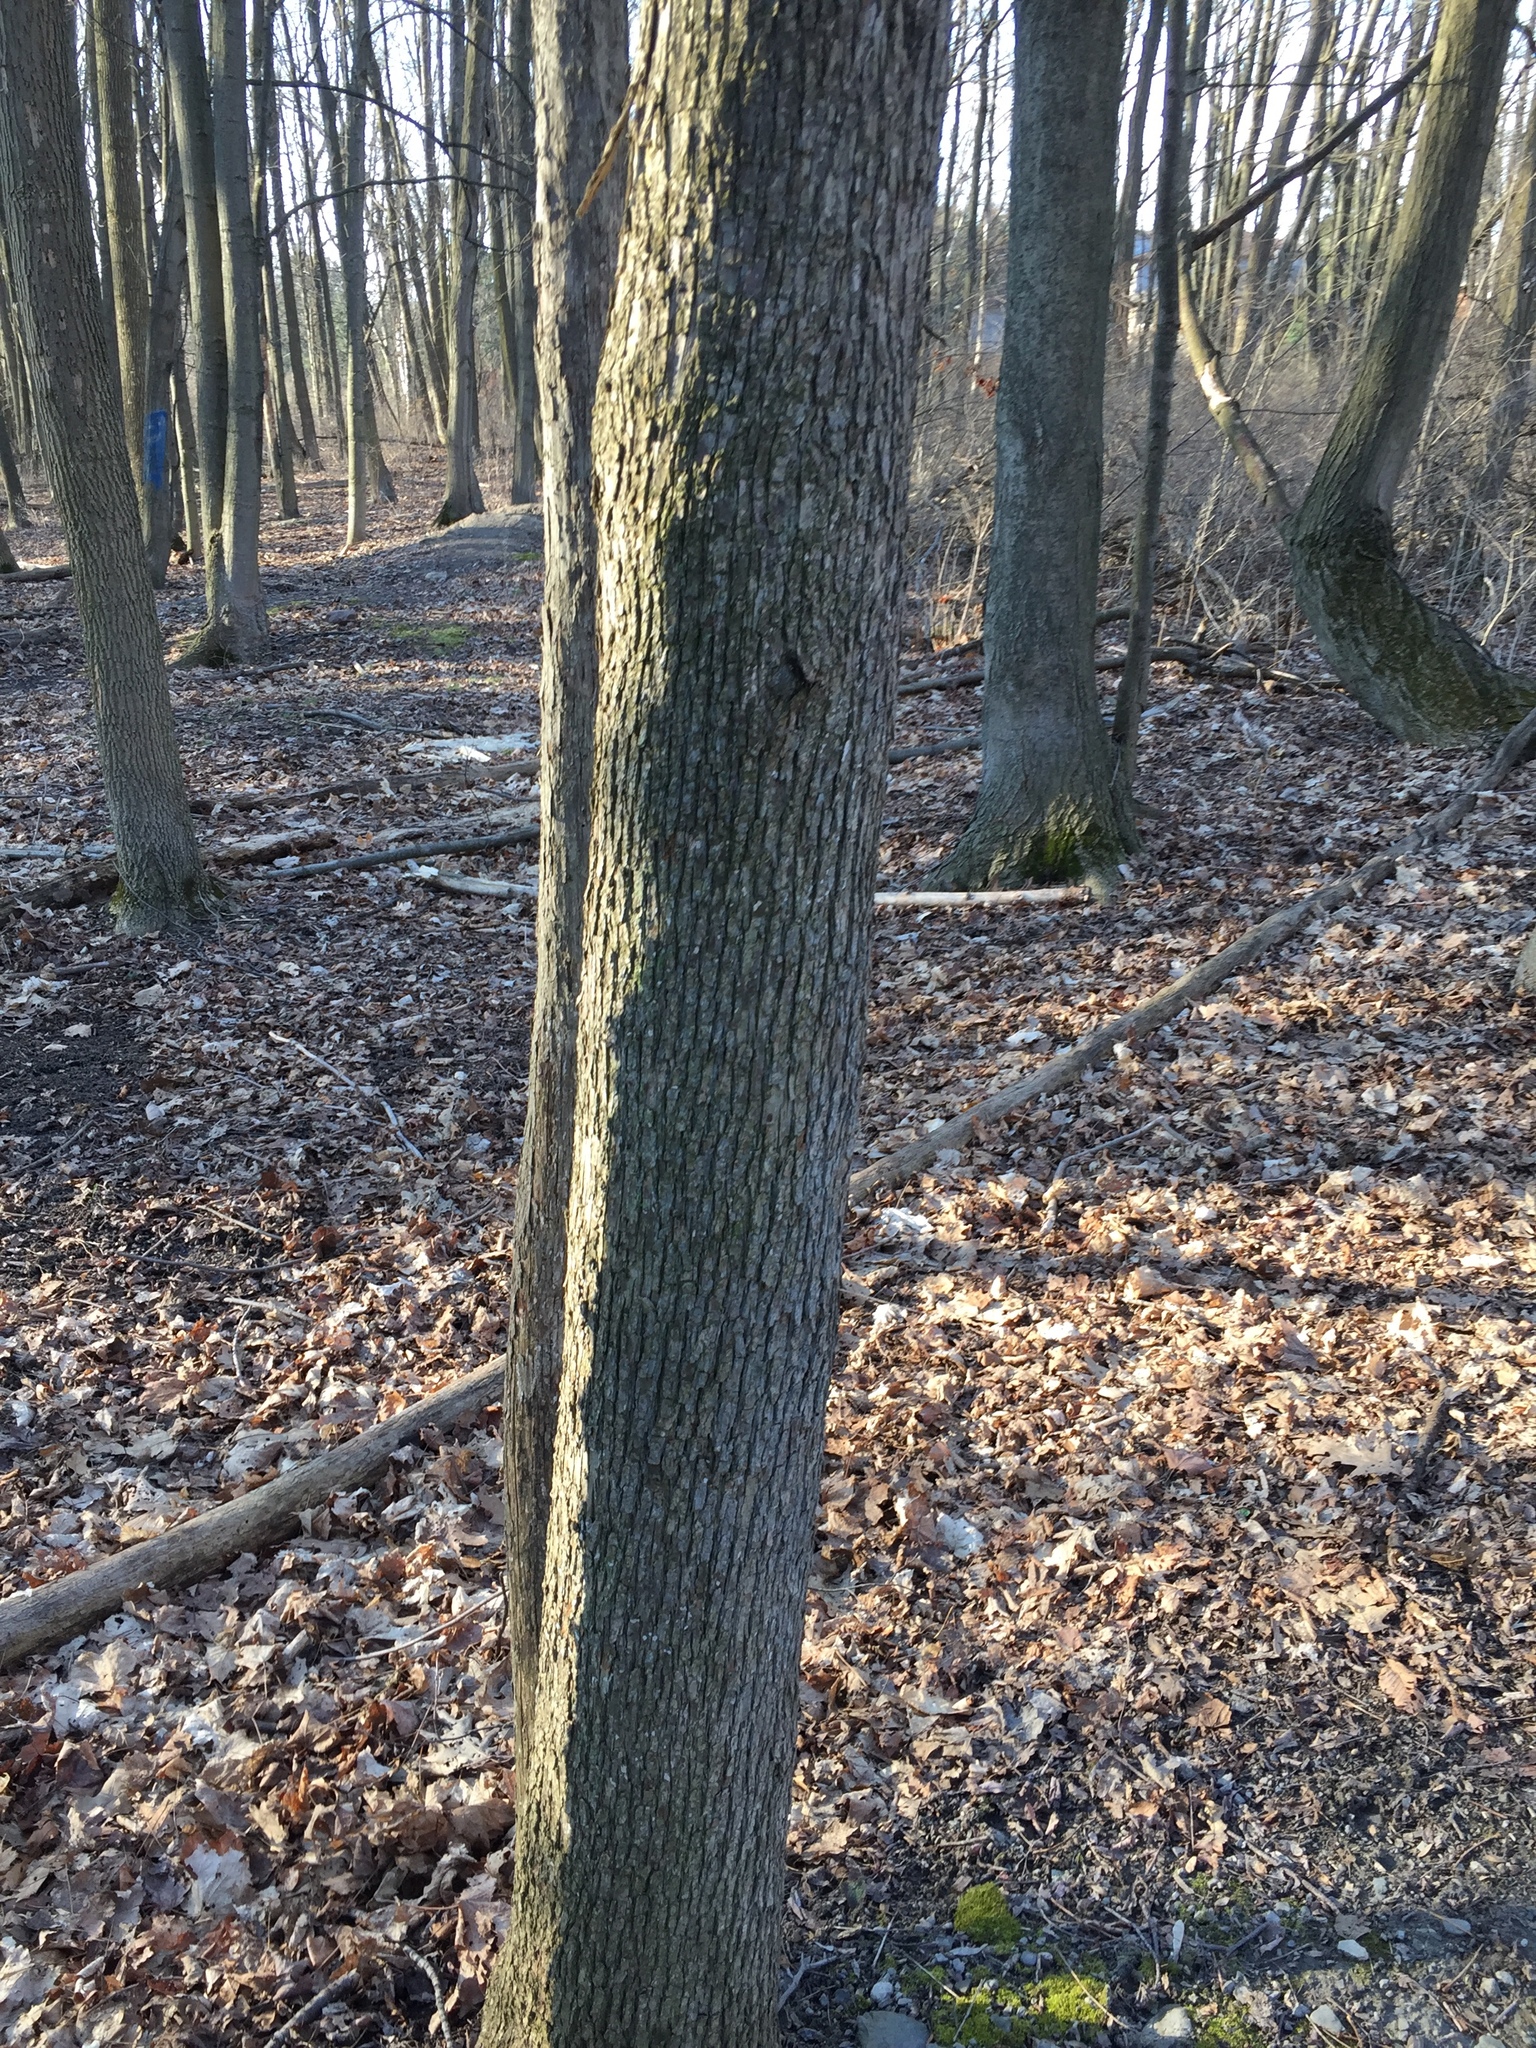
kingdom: Plantae
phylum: Tracheophyta
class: Magnoliopsida
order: Fagales
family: Betulaceae
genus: Ostrya
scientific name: Ostrya virginiana
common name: Ironwood
